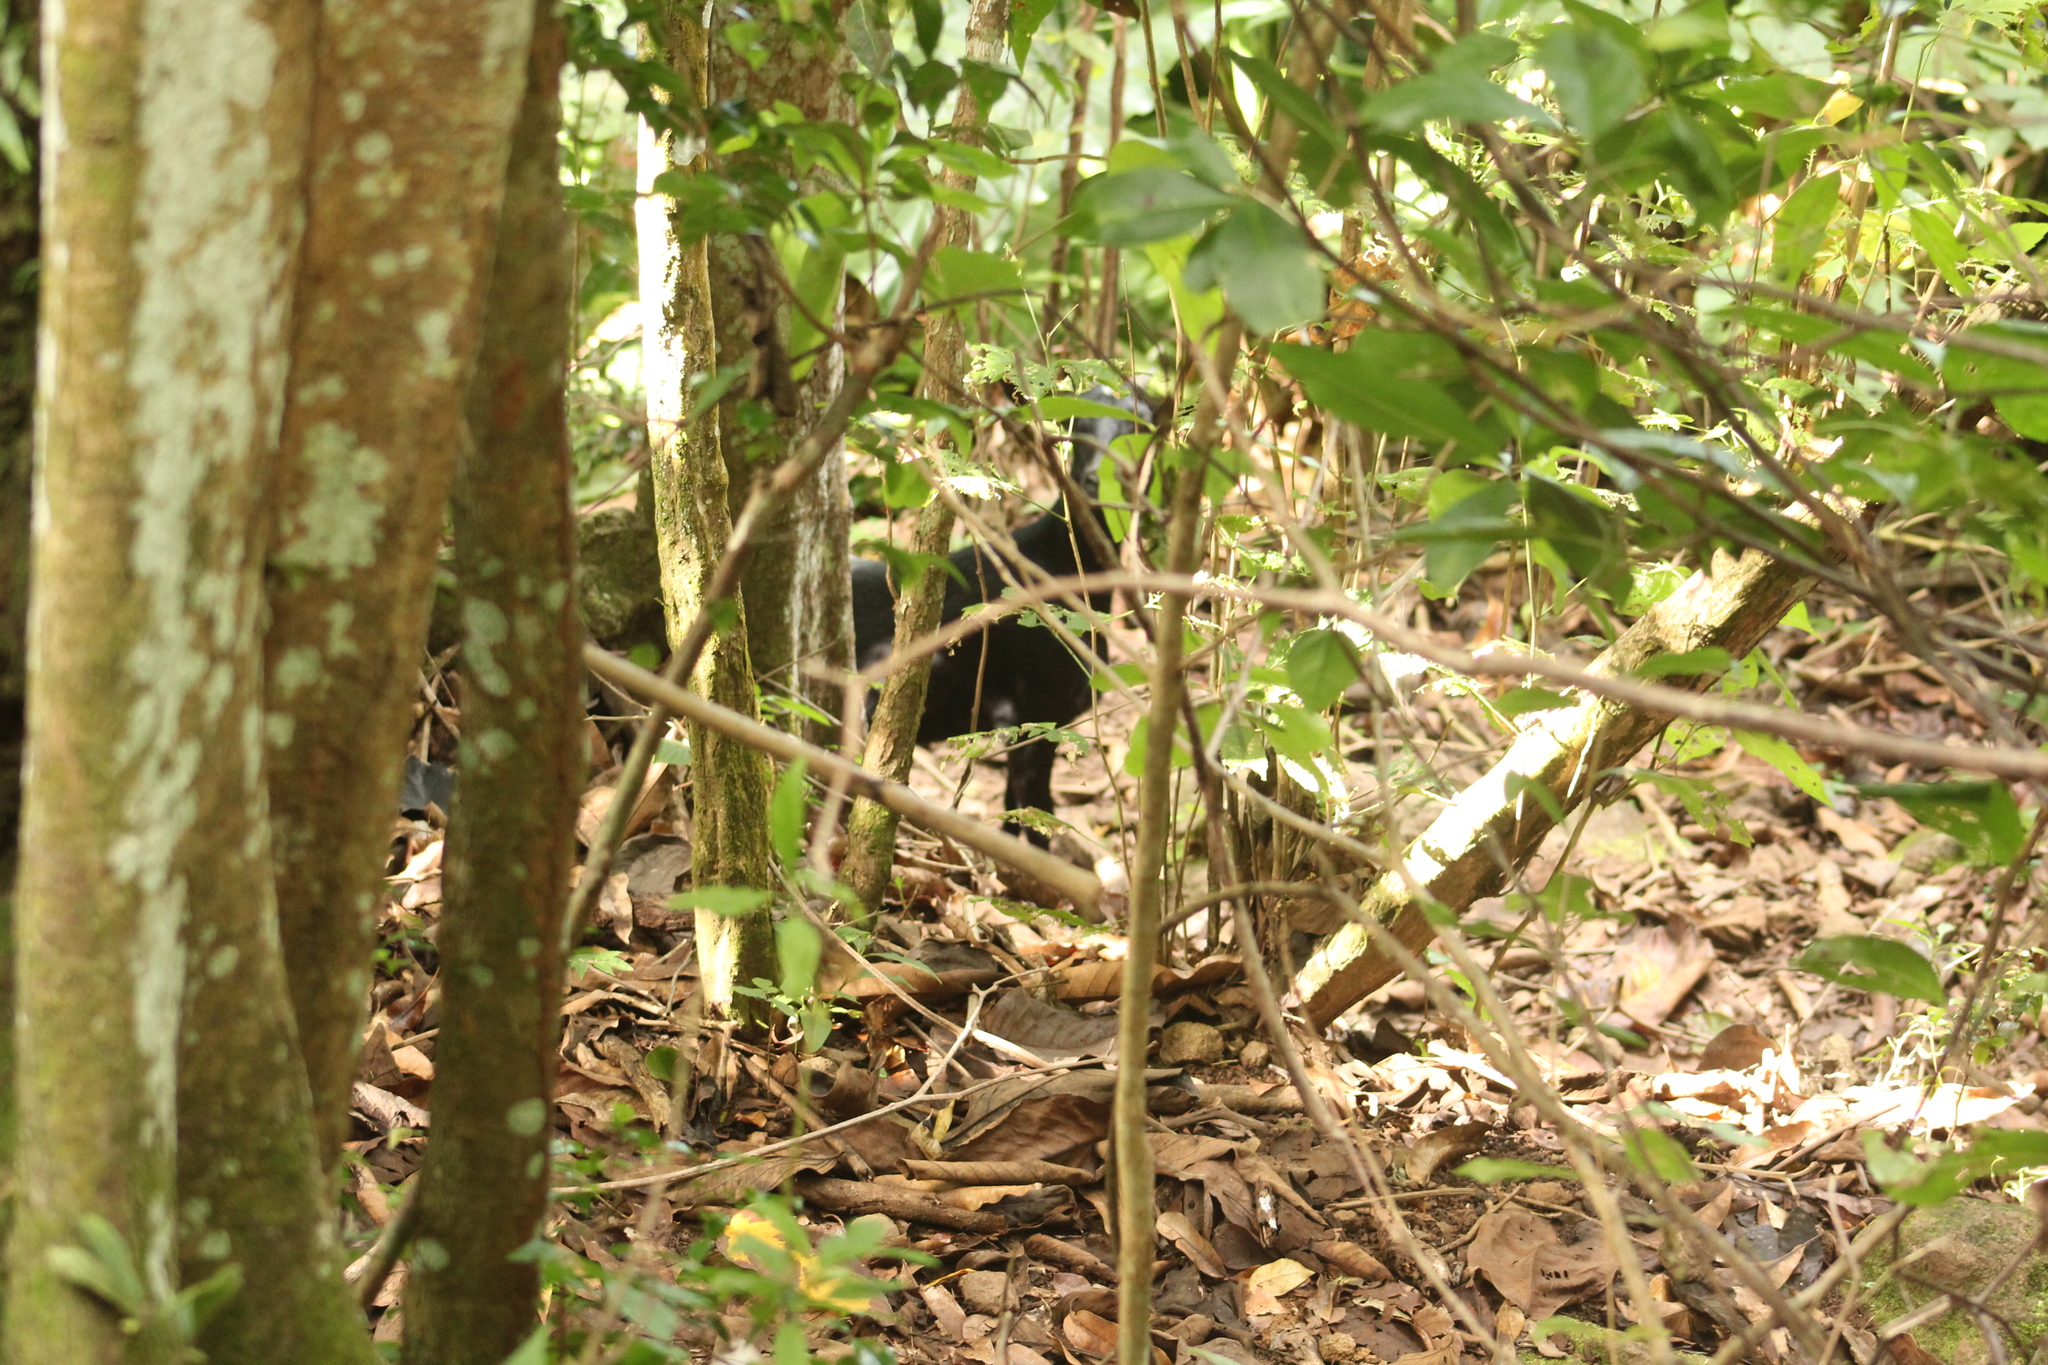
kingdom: Animalia
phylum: Chordata
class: Mammalia
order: Artiodactyla
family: Bovidae
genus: Capra
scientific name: Capra hircus
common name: Domestic goat
